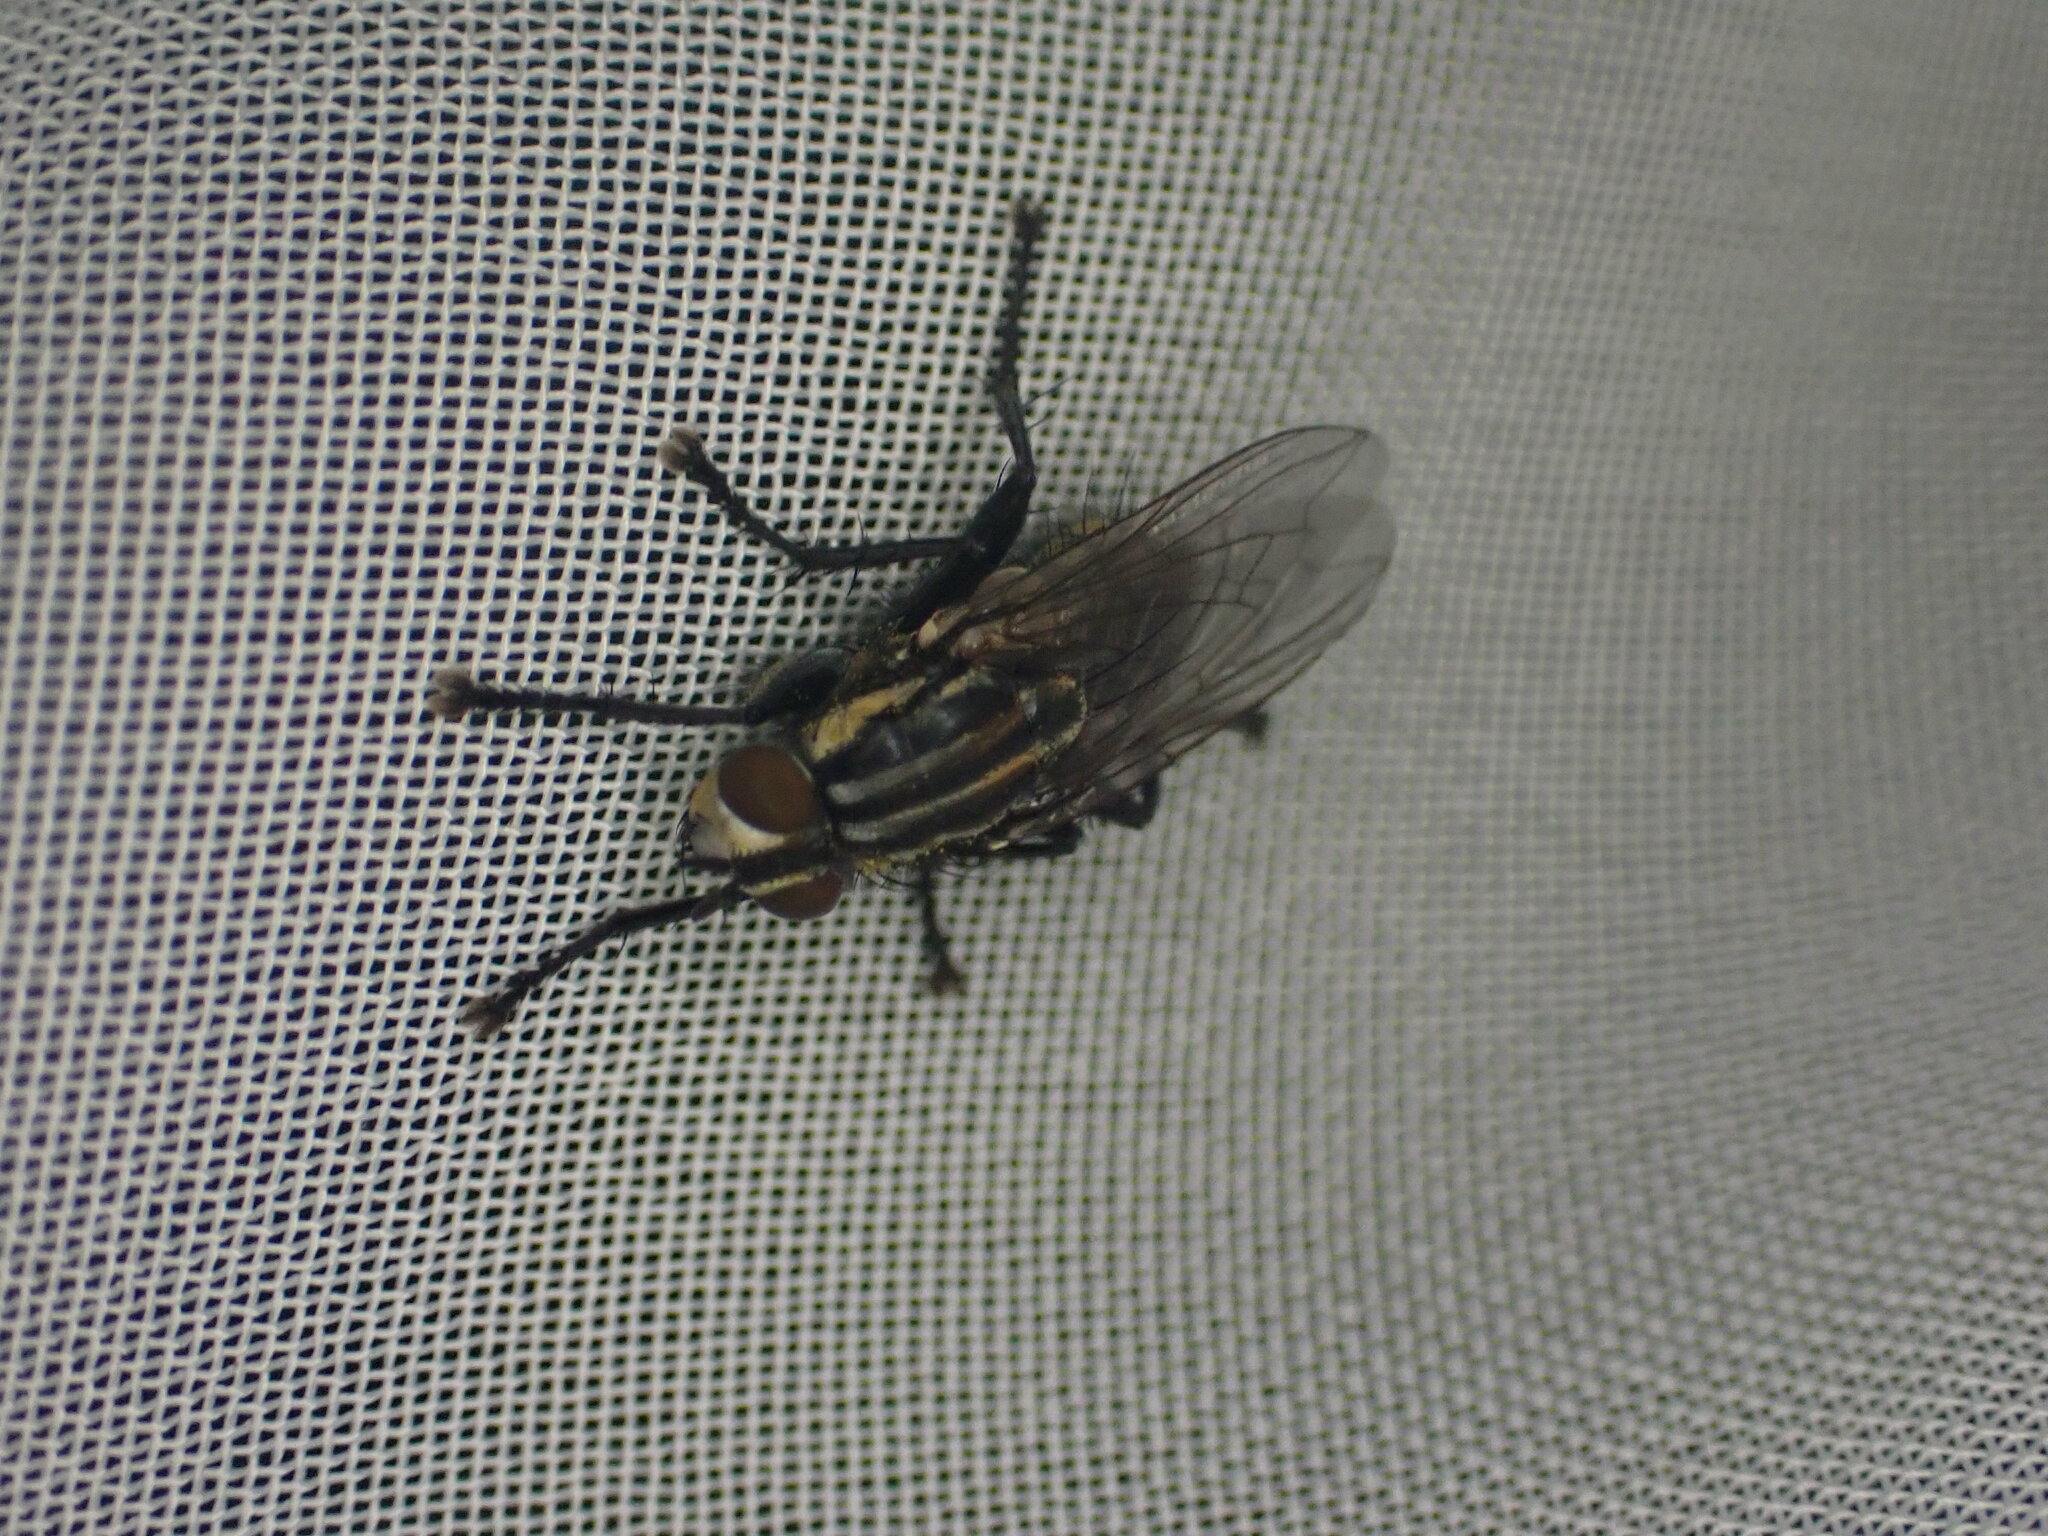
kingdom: Animalia
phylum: Arthropoda
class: Insecta
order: Diptera
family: Sarcophagidae
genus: Oxysarcodexia
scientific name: Oxysarcodexia varia
